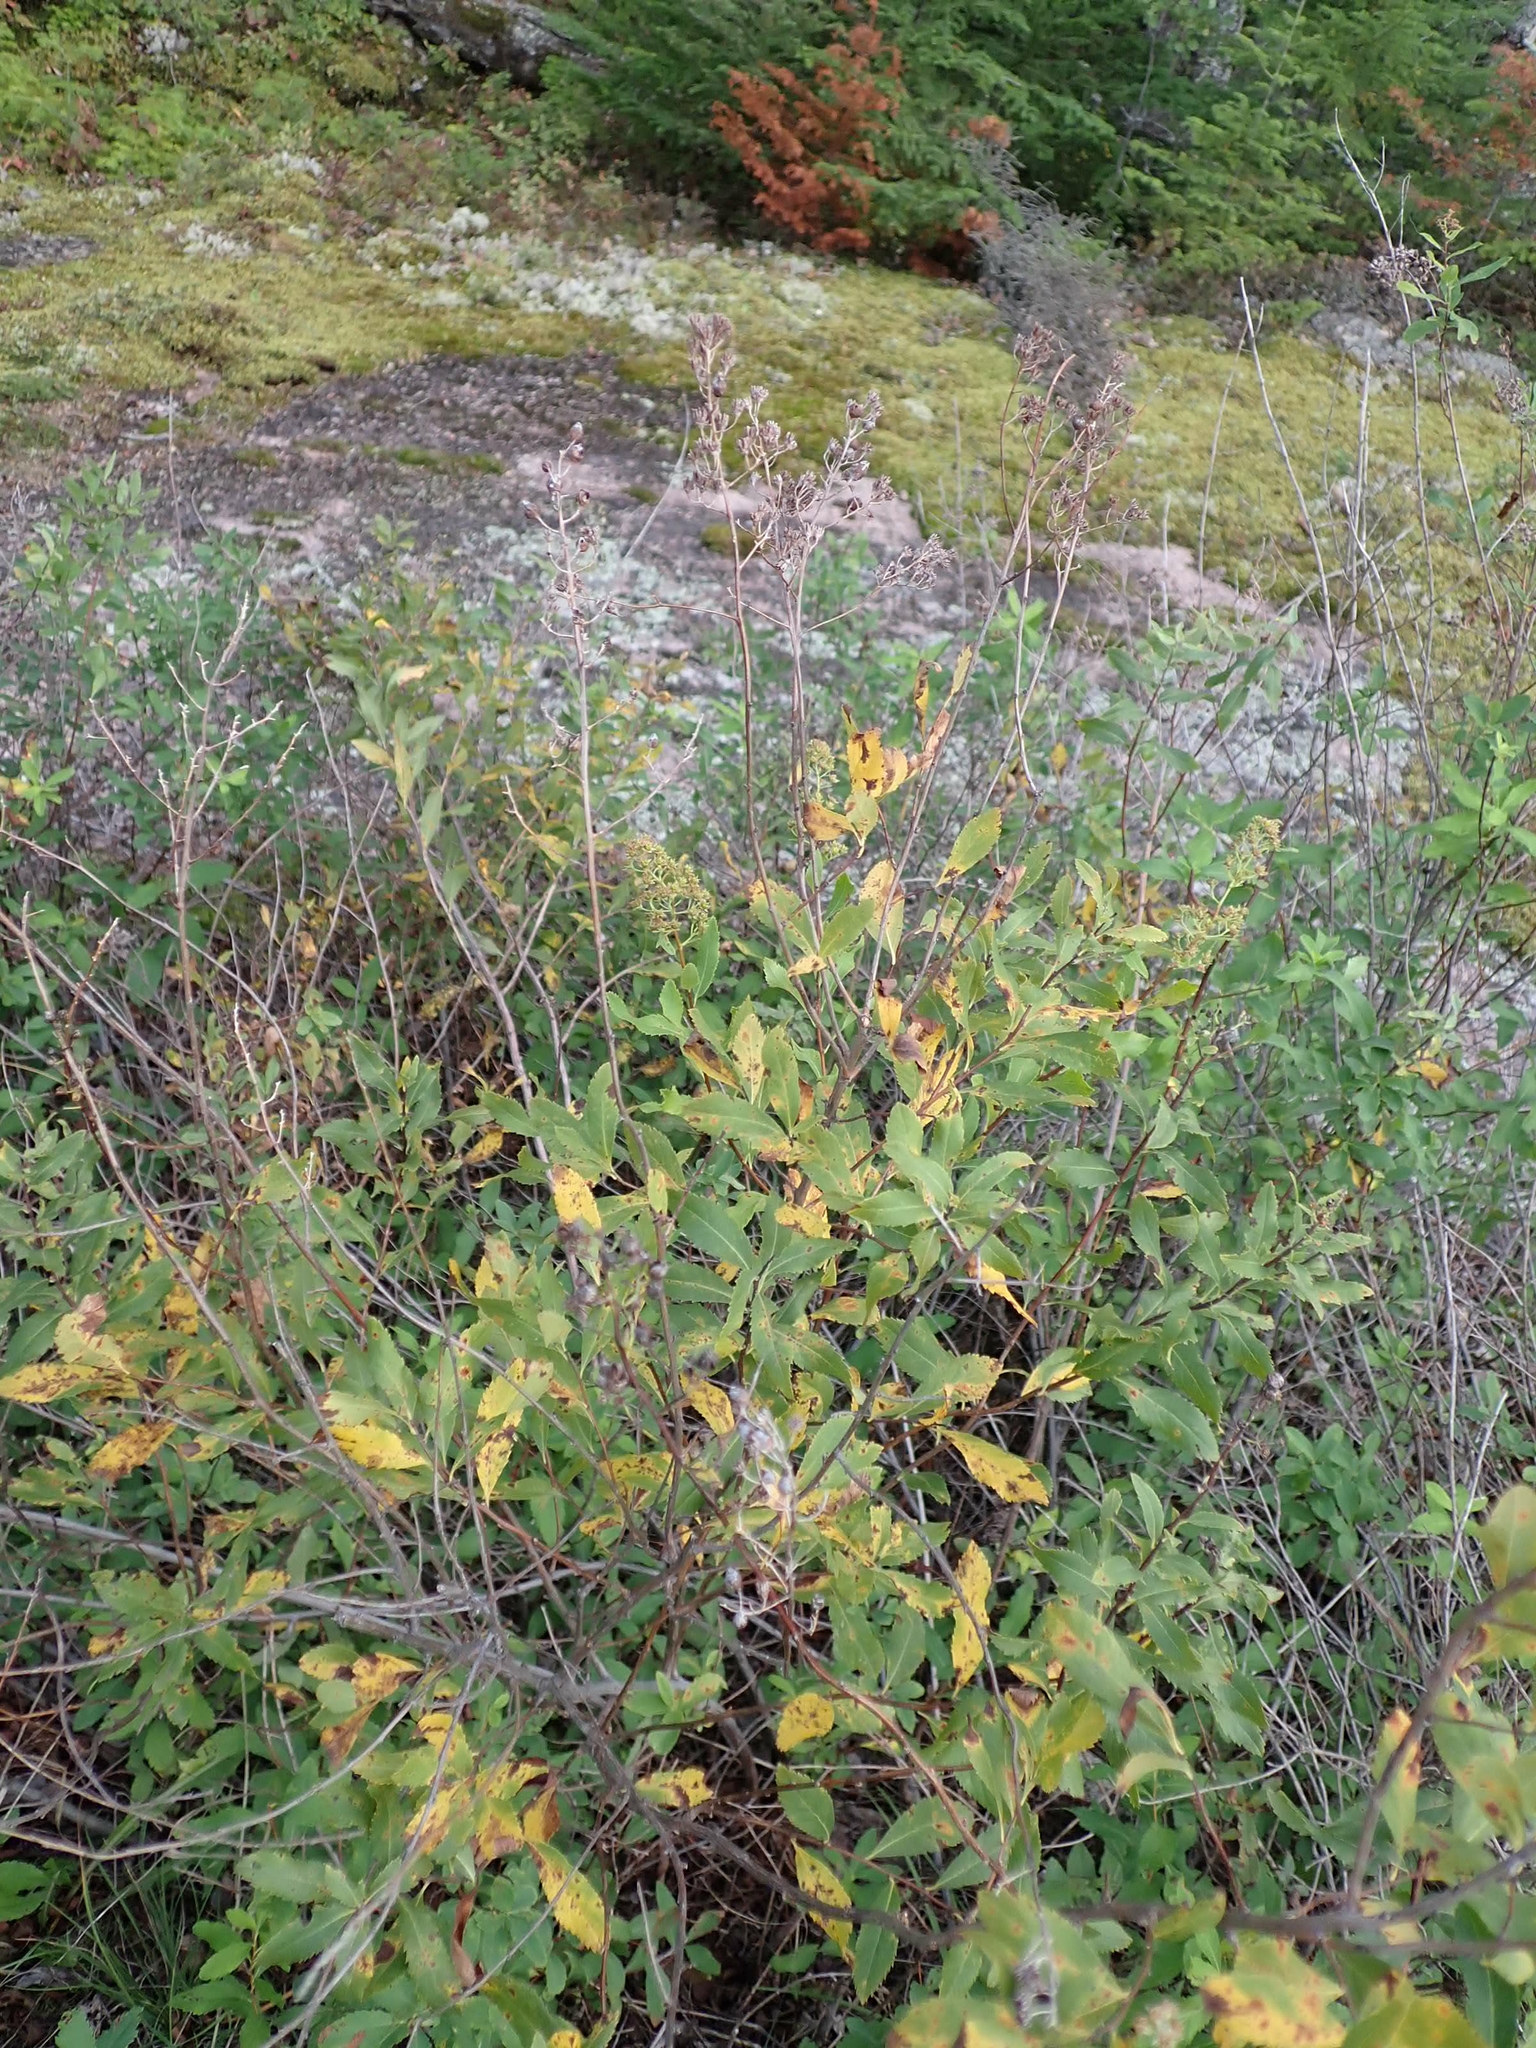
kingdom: Plantae
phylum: Tracheophyta
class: Magnoliopsida
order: Rosales
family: Rosaceae
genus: Spiraea
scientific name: Spiraea alba
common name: Pale bridewort
